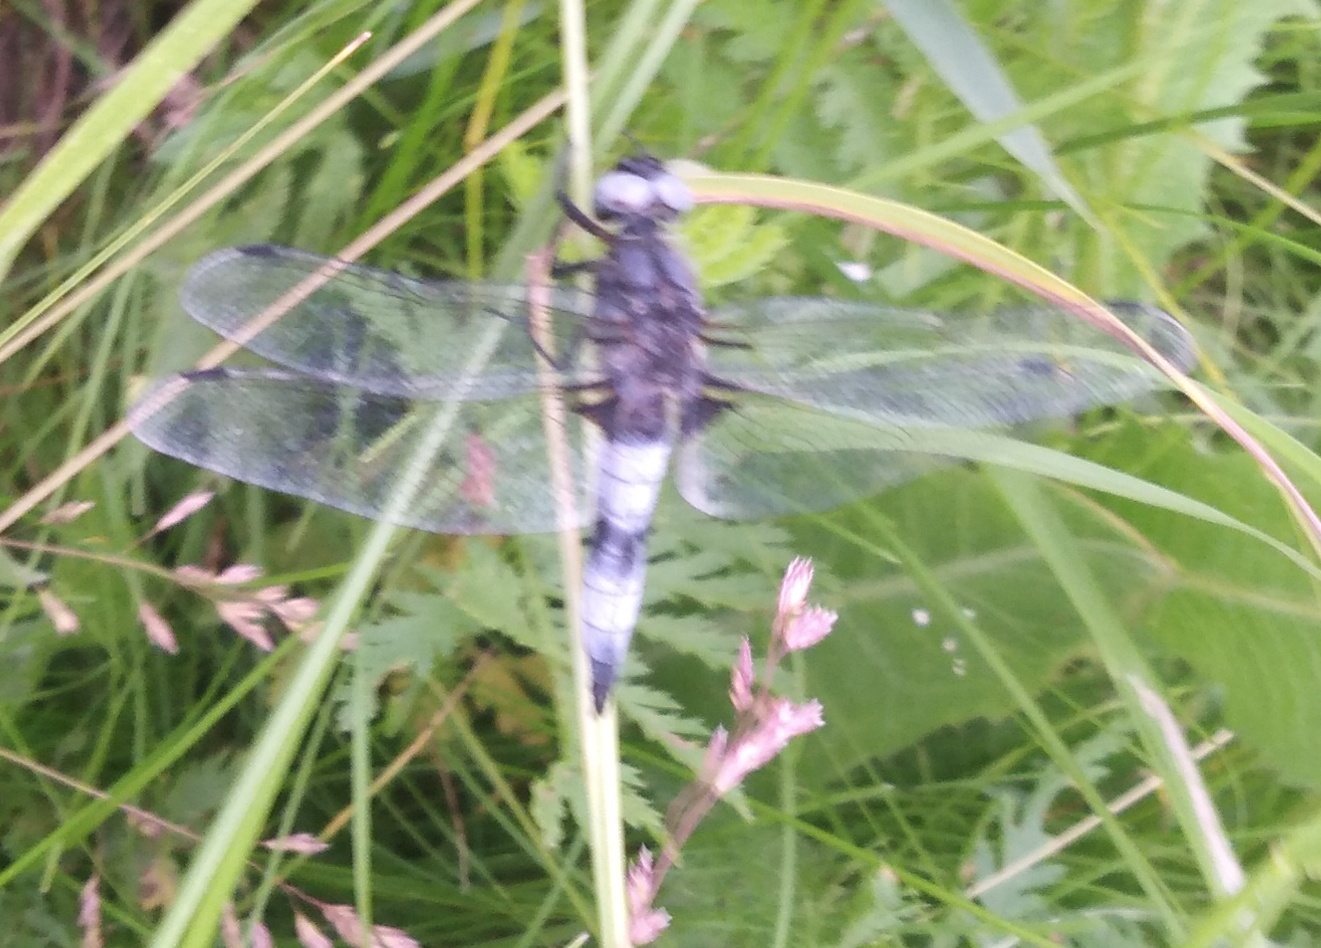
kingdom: Animalia
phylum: Arthropoda
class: Insecta
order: Odonata
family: Libellulidae
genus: Libellula
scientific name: Libellula fulva
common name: Blue chaser
